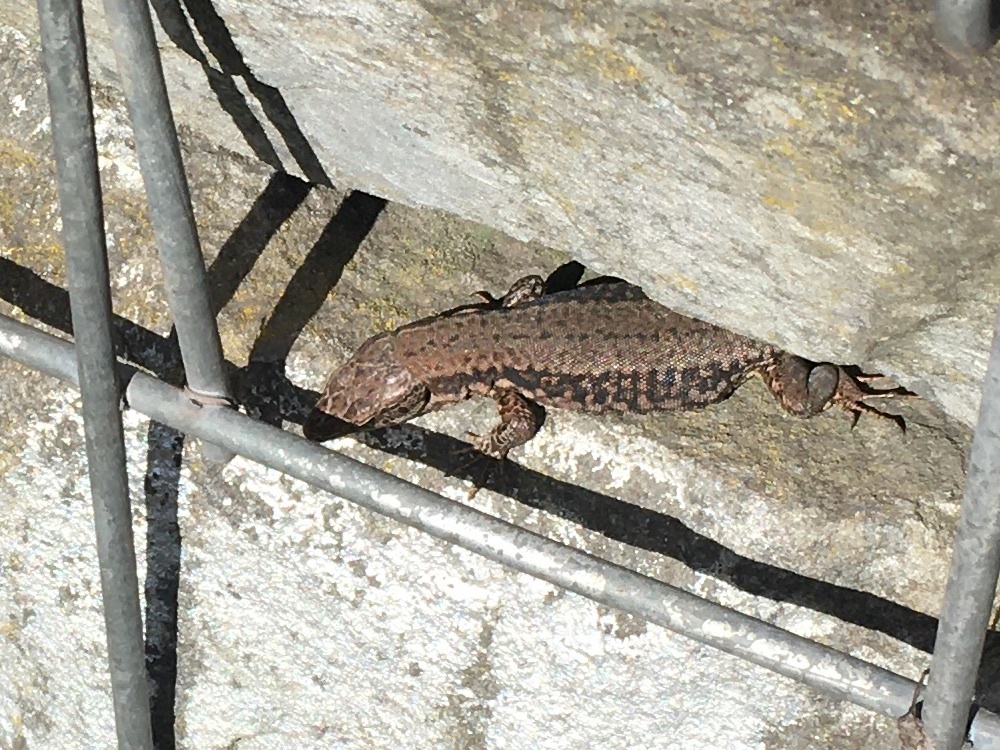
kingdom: Animalia
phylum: Chordata
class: Squamata
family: Lacertidae
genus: Podarcis
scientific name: Podarcis muralis
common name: Common wall lizard
